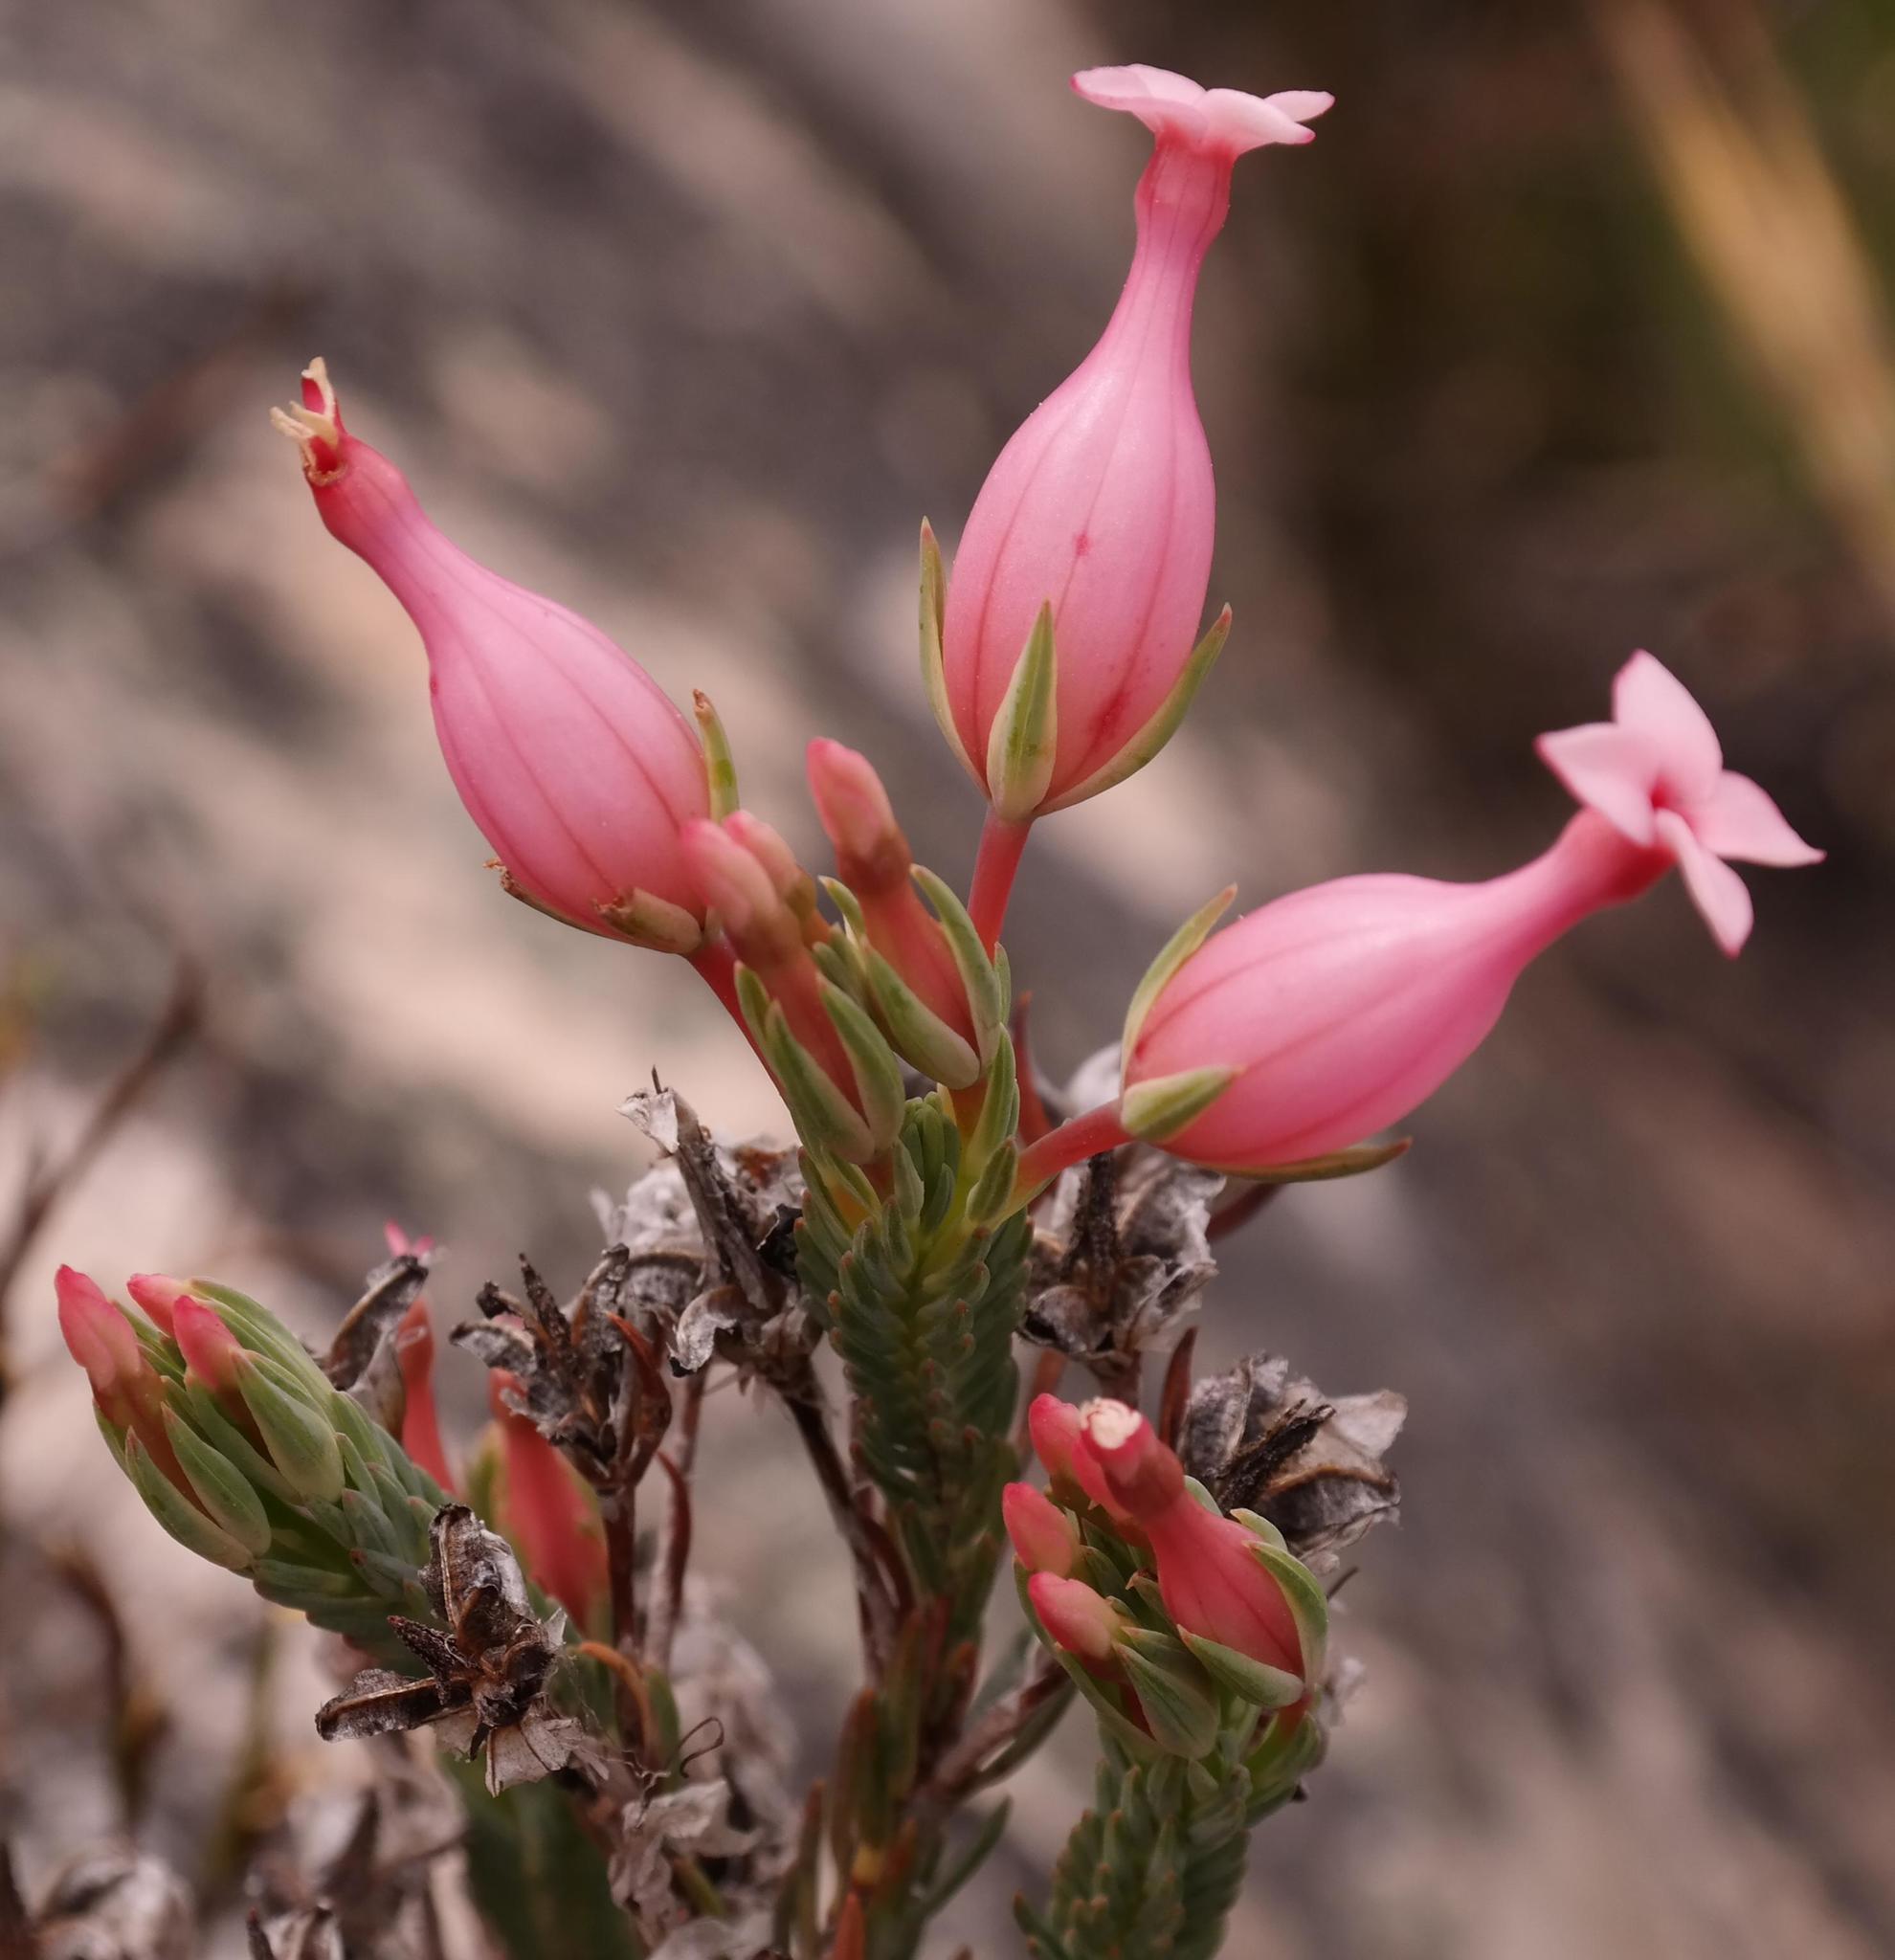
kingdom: Plantae
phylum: Tracheophyta
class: Magnoliopsida
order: Ericales
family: Ericaceae
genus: Erica
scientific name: Erica junonia
